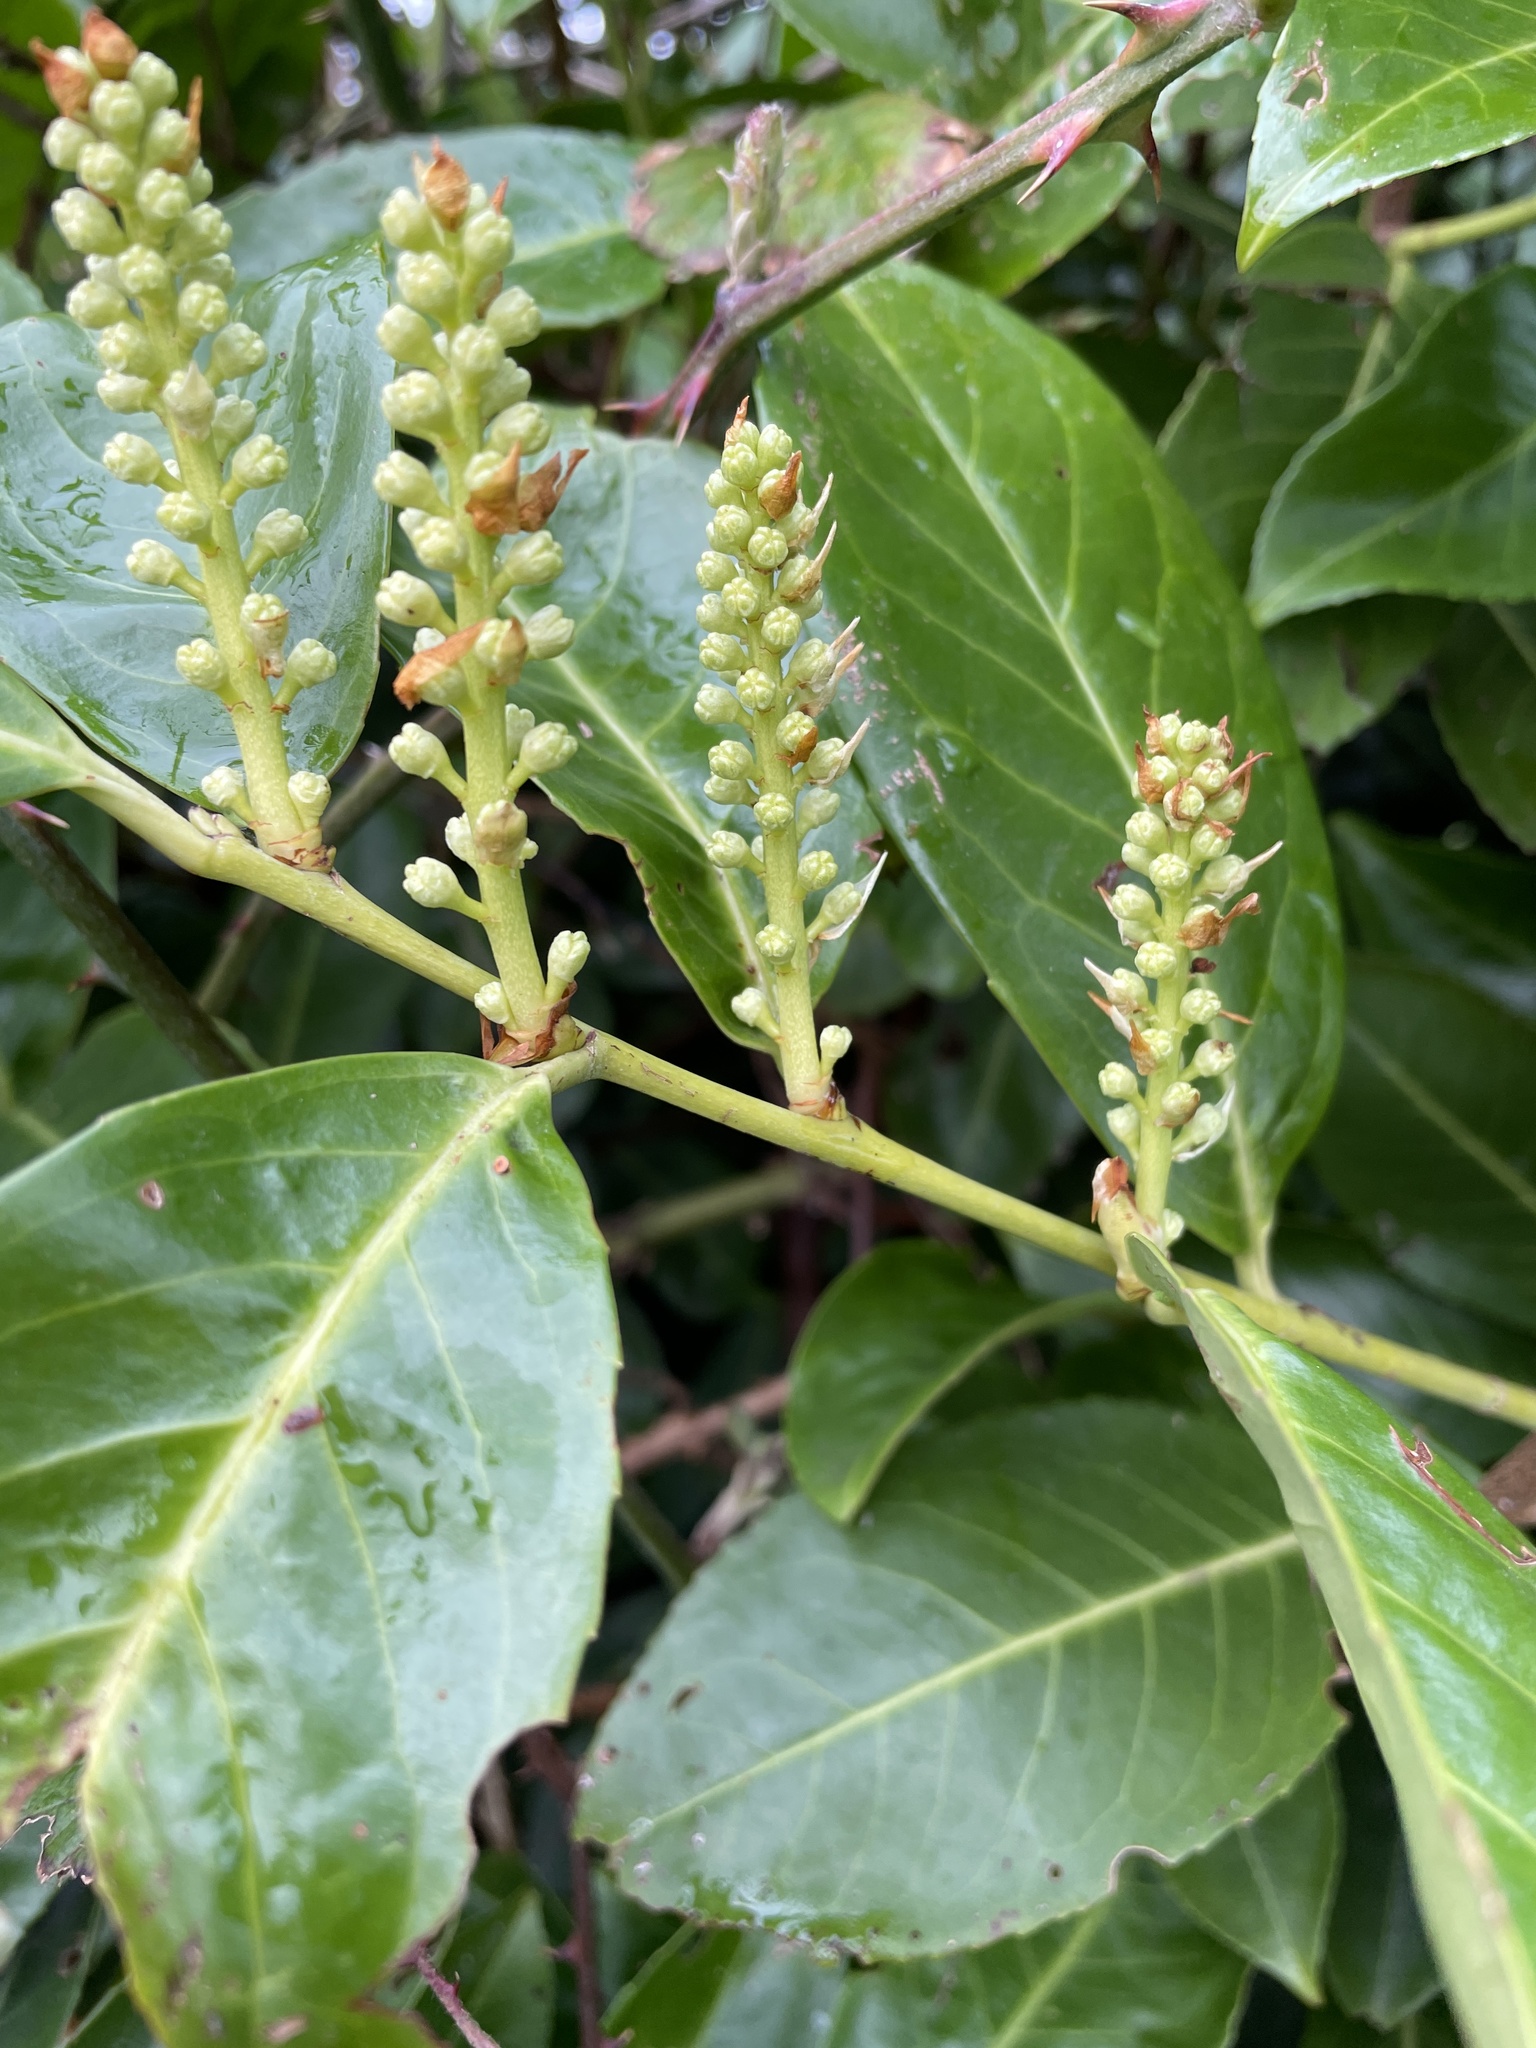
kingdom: Plantae
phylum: Tracheophyta
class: Magnoliopsida
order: Rosales
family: Rosaceae
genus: Prunus
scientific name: Prunus laurocerasus
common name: Cherry laurel
